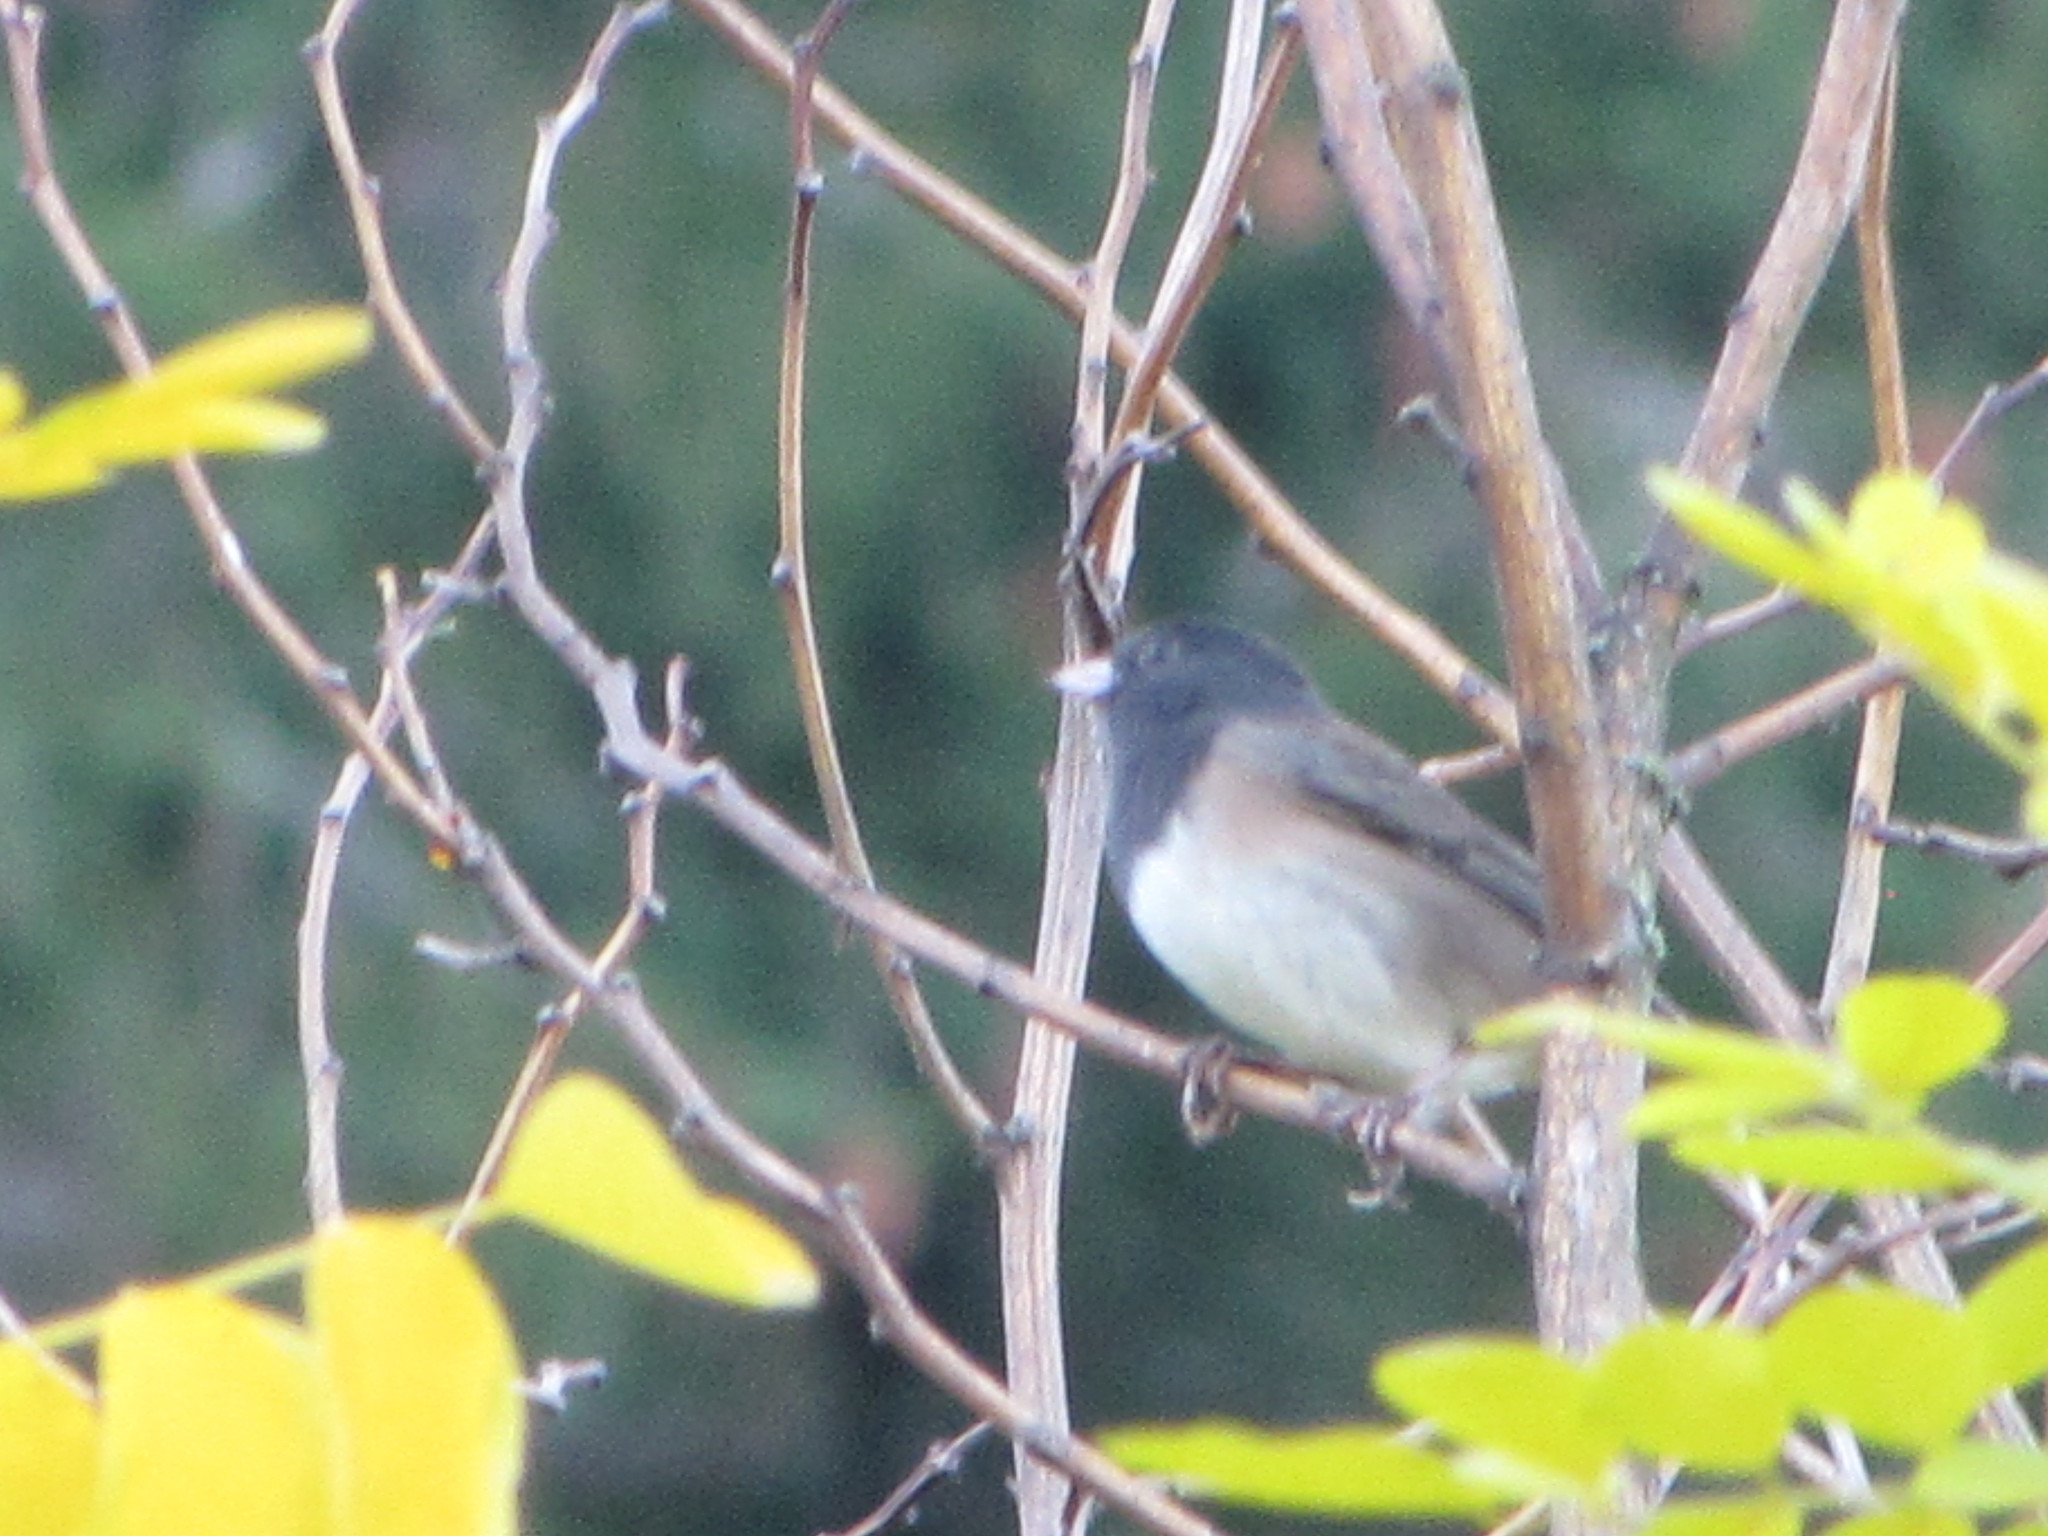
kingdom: Animalia
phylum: Chordata
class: Aves
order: Passeriformes
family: Passerellidae
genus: Junco
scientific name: Junco hyemalis
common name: Dark-eyed junco
